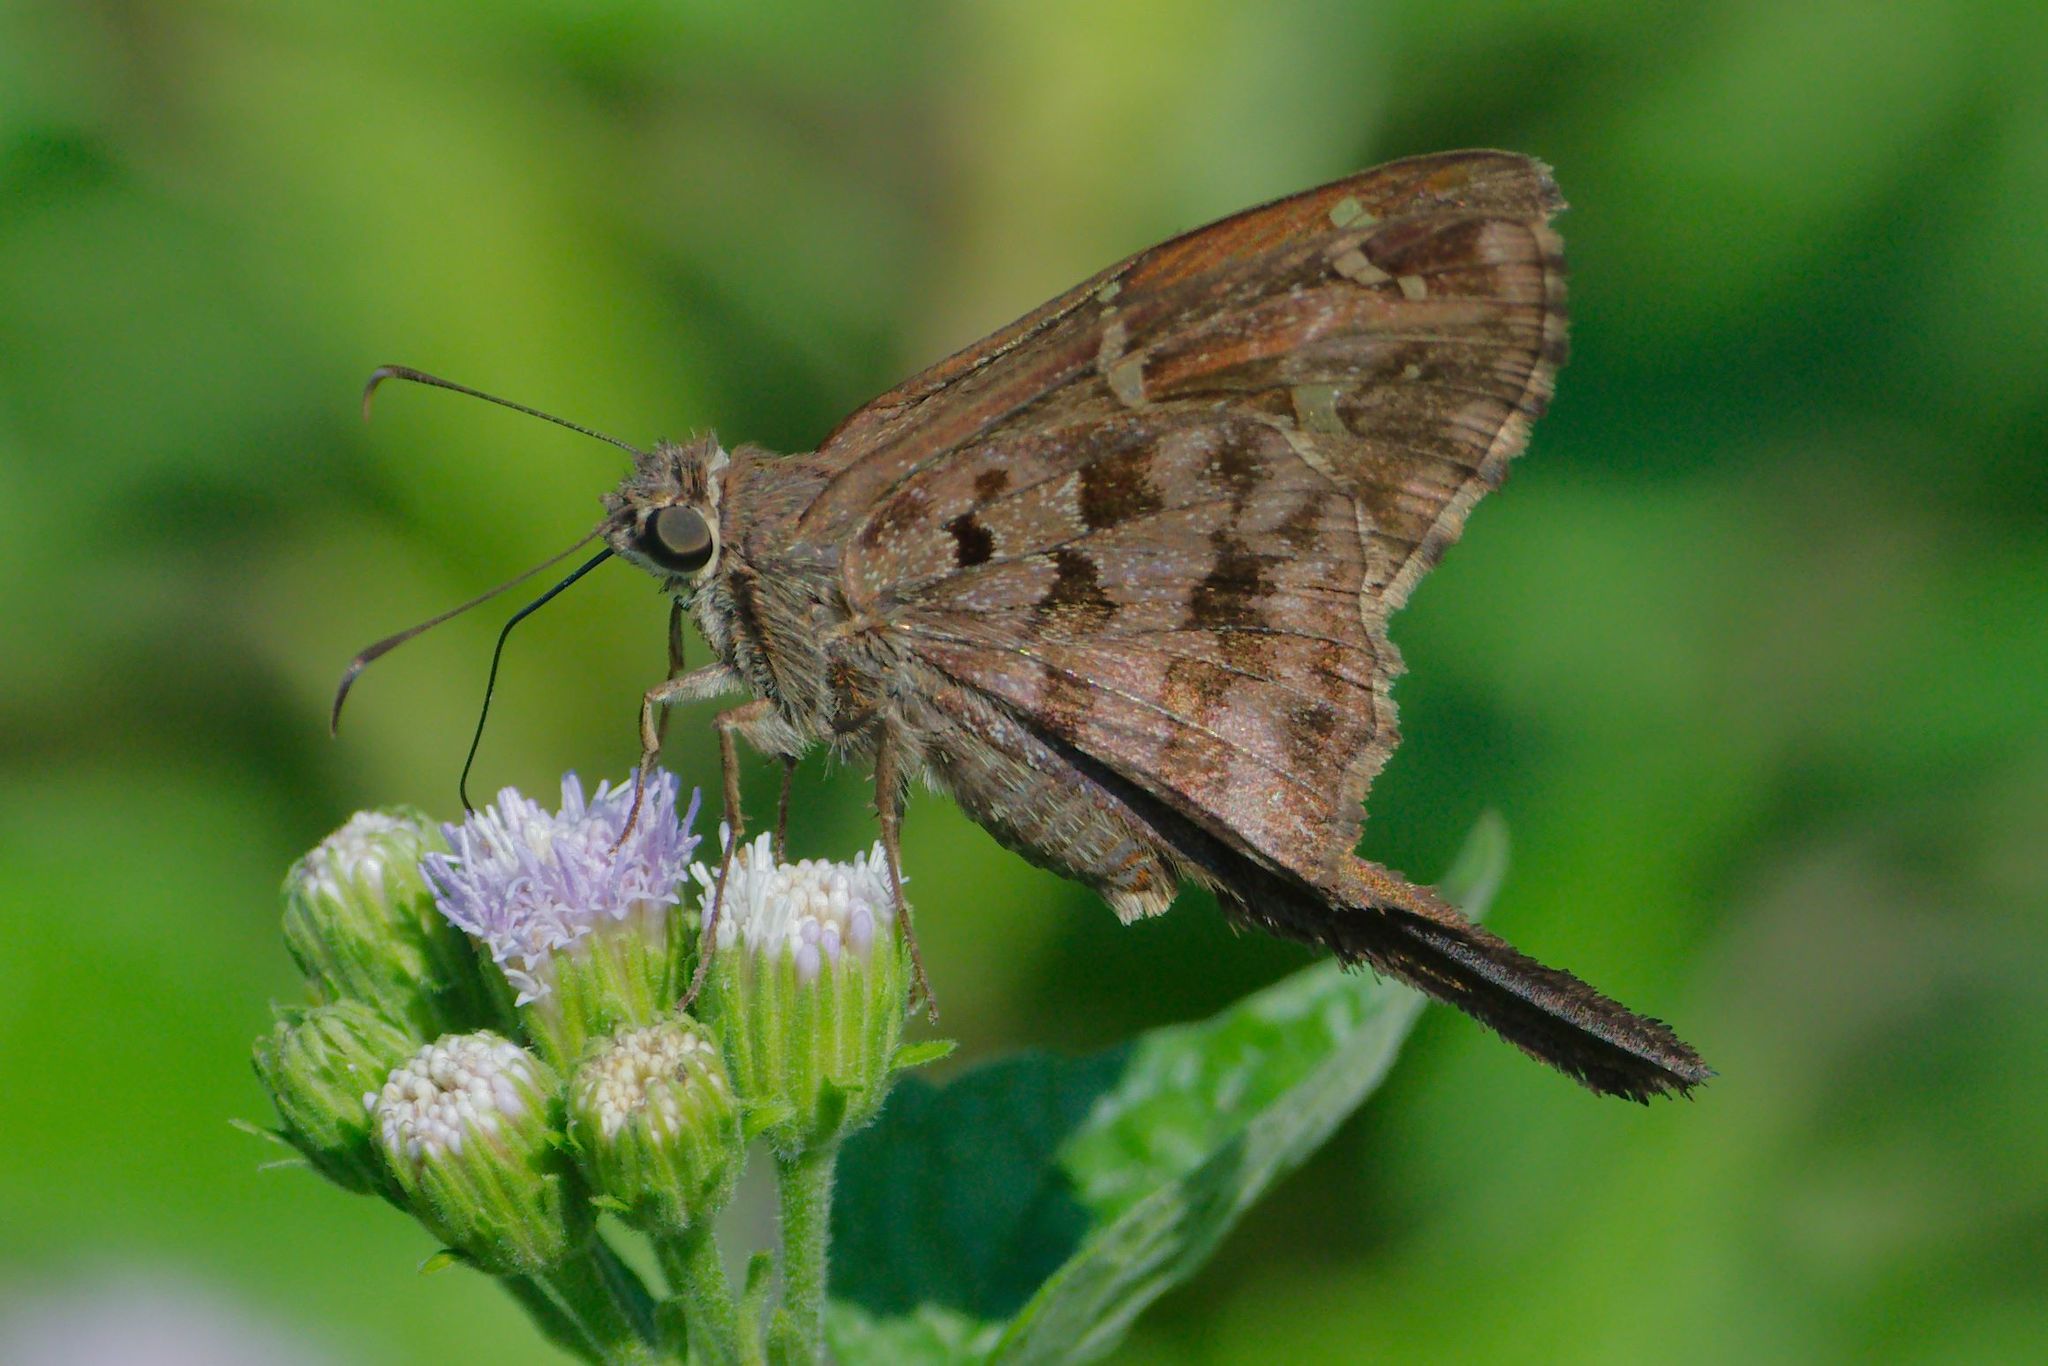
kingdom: Animalia
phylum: Arthropoda
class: Insecta
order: Lepidoptera
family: Hesperiidae
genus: Thorybes
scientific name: Thorybes
